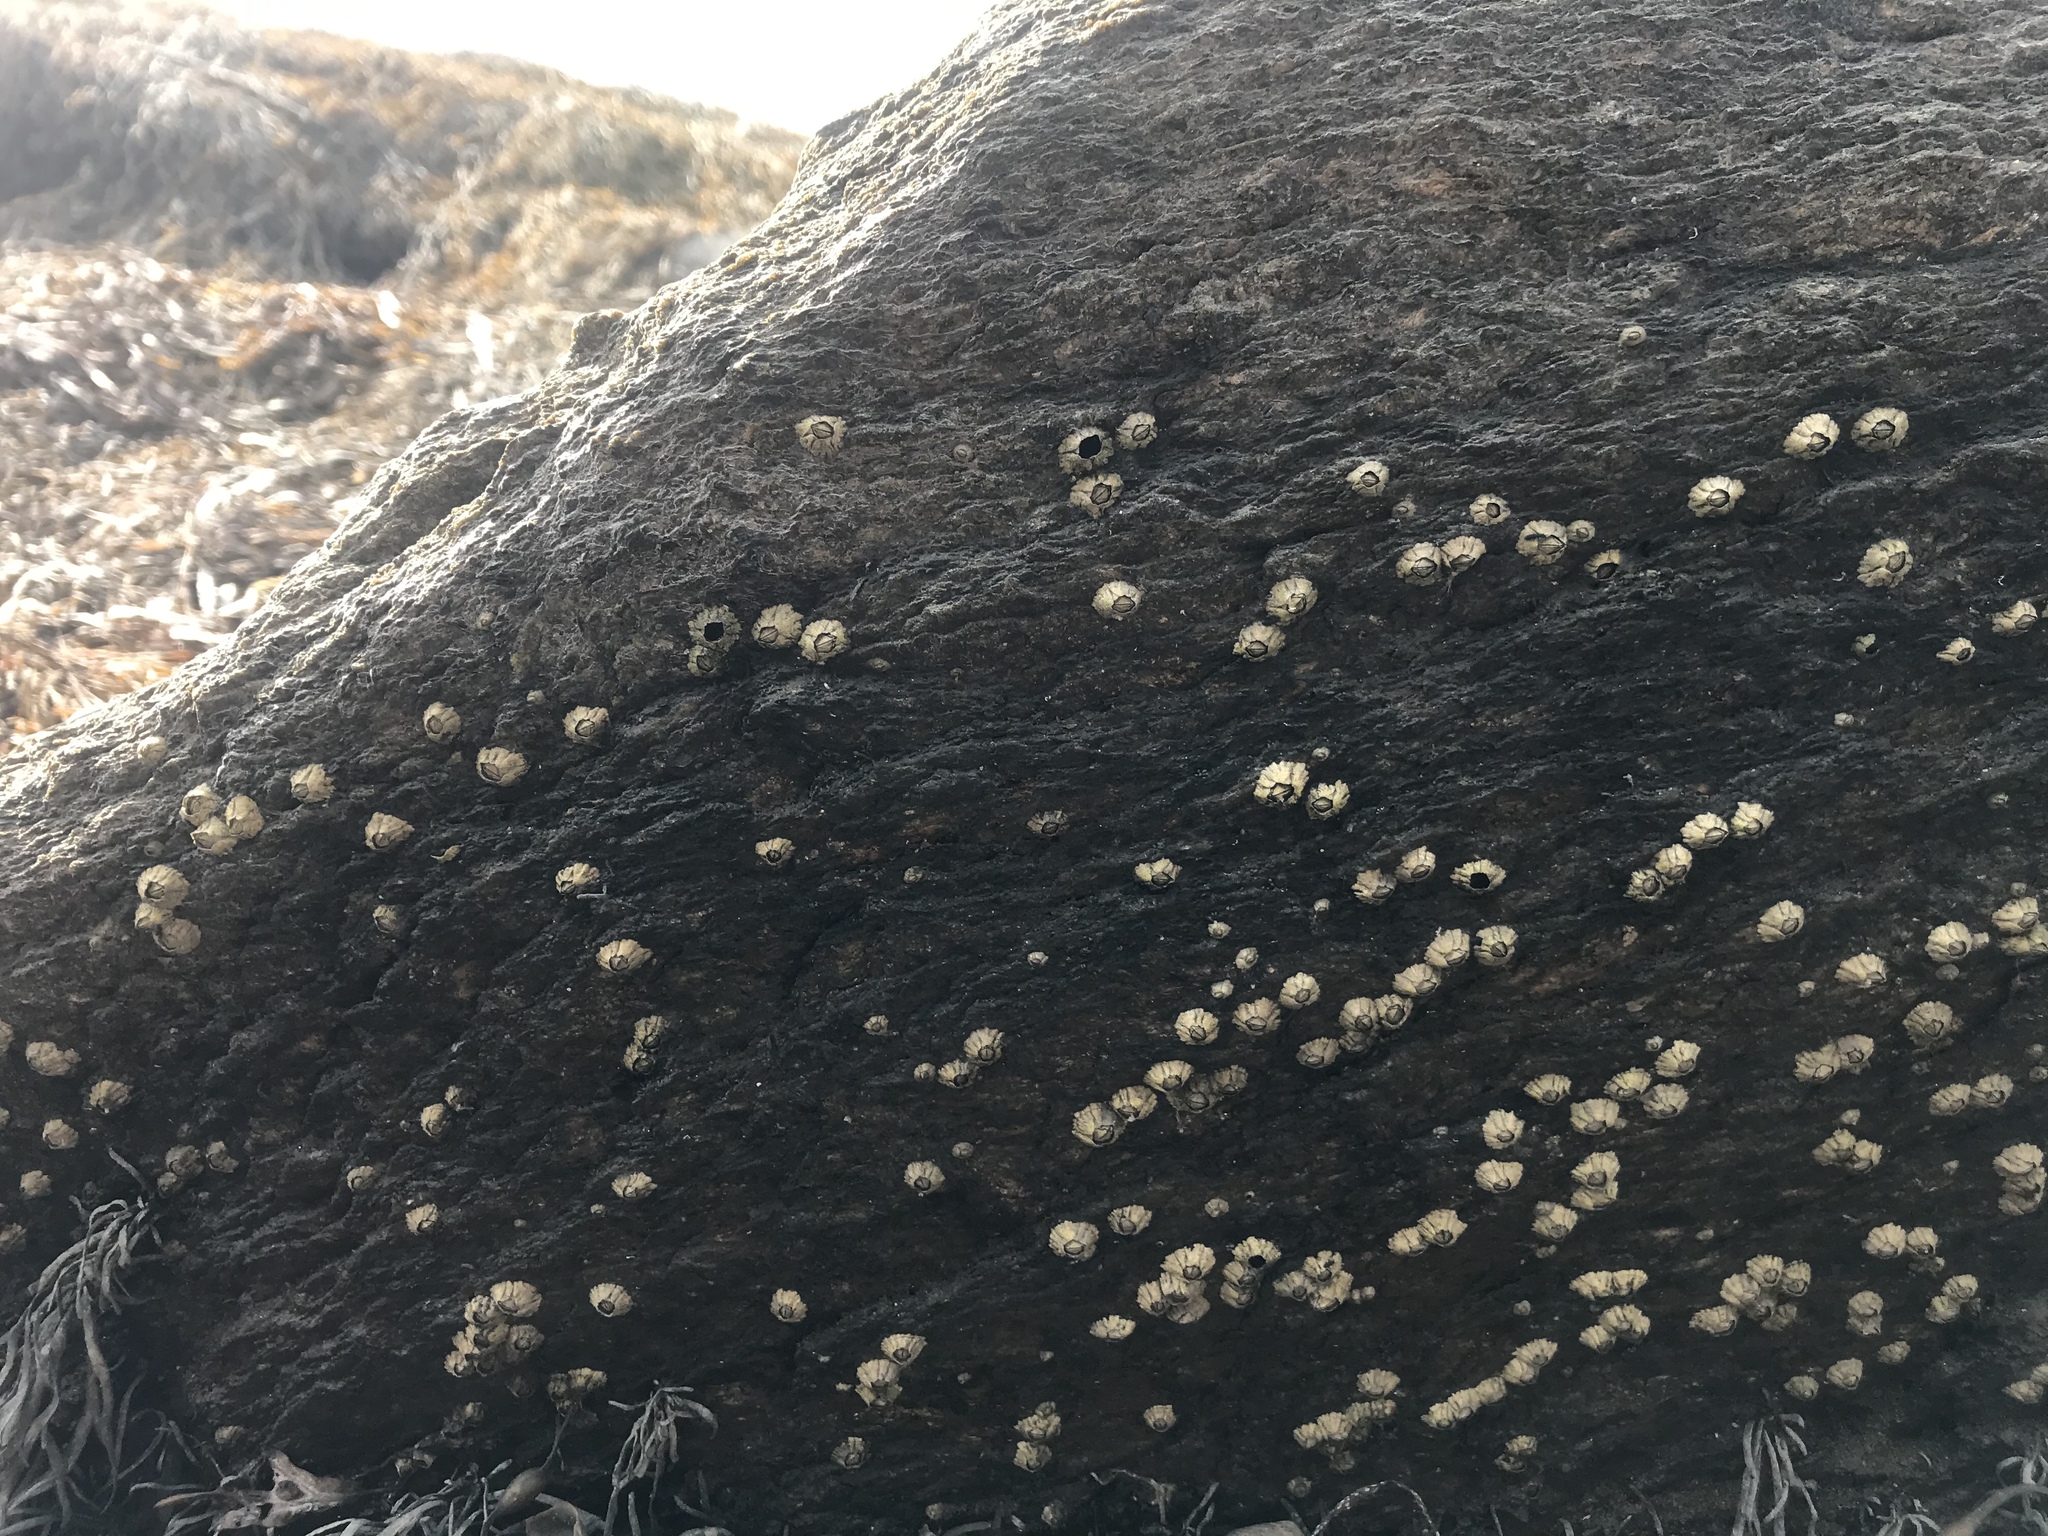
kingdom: Animalia
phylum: Arthropoda
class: Maxillopoda
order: Sessilia
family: Archaeobalanidae
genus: Semibalanus
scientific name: Semibalanus balanoides
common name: Acorn barnacle
